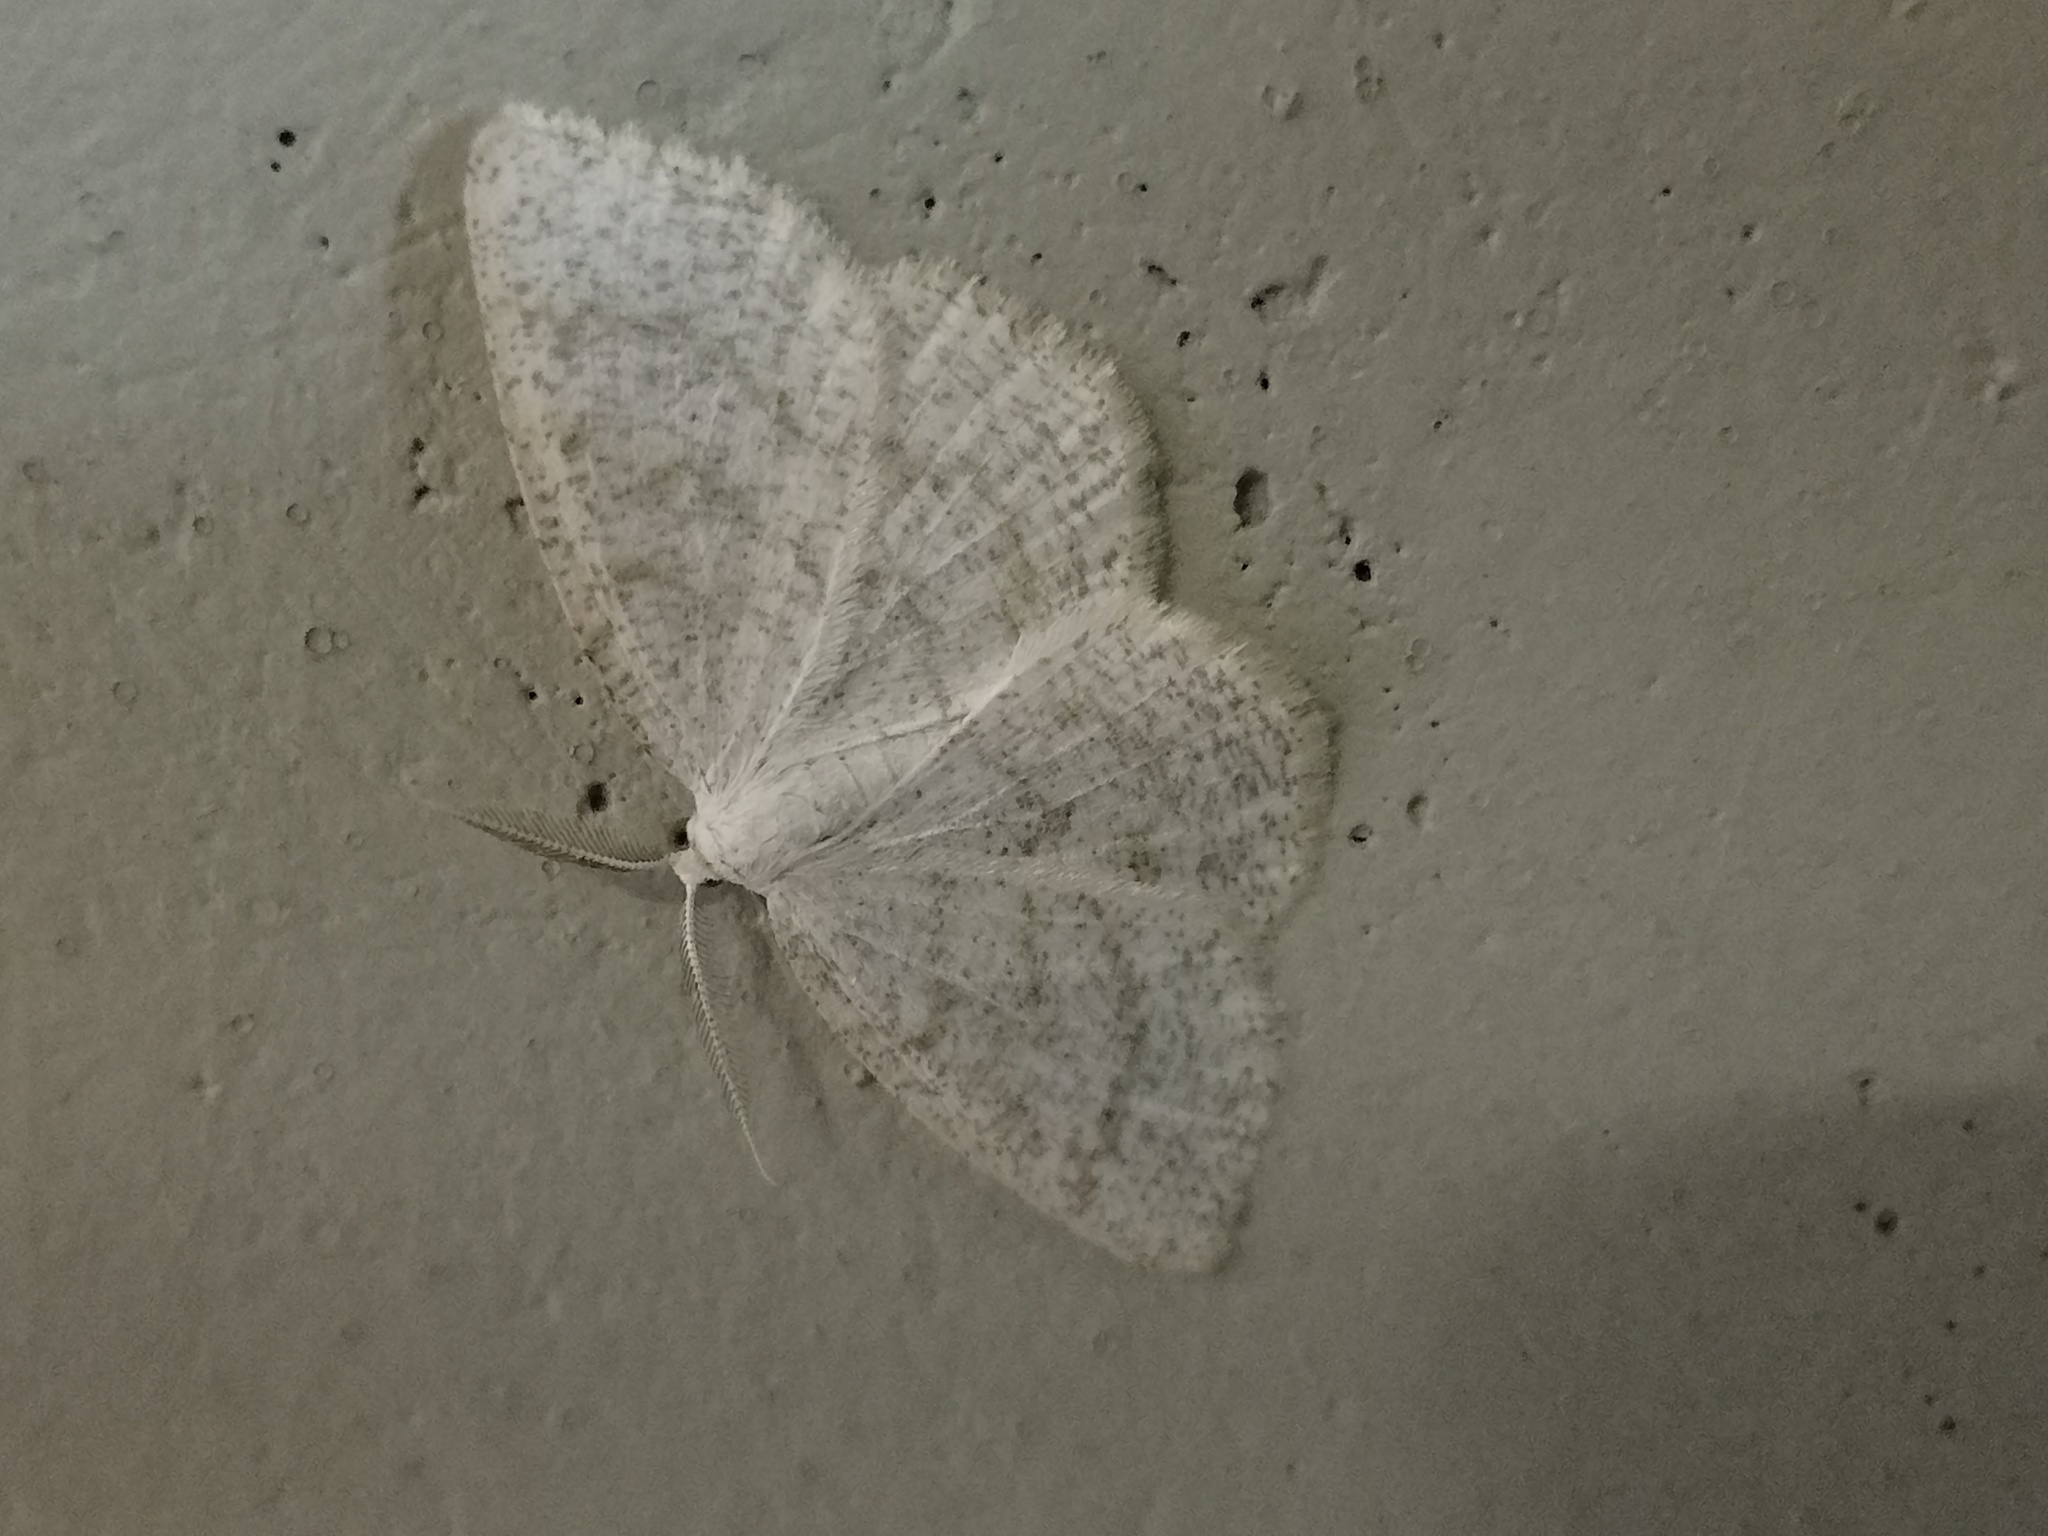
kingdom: Animalia
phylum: Arthropoda
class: Insecta
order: Lepidoptera
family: Geometridae
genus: Cabera
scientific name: Cabera exanthemata
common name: Common wave
